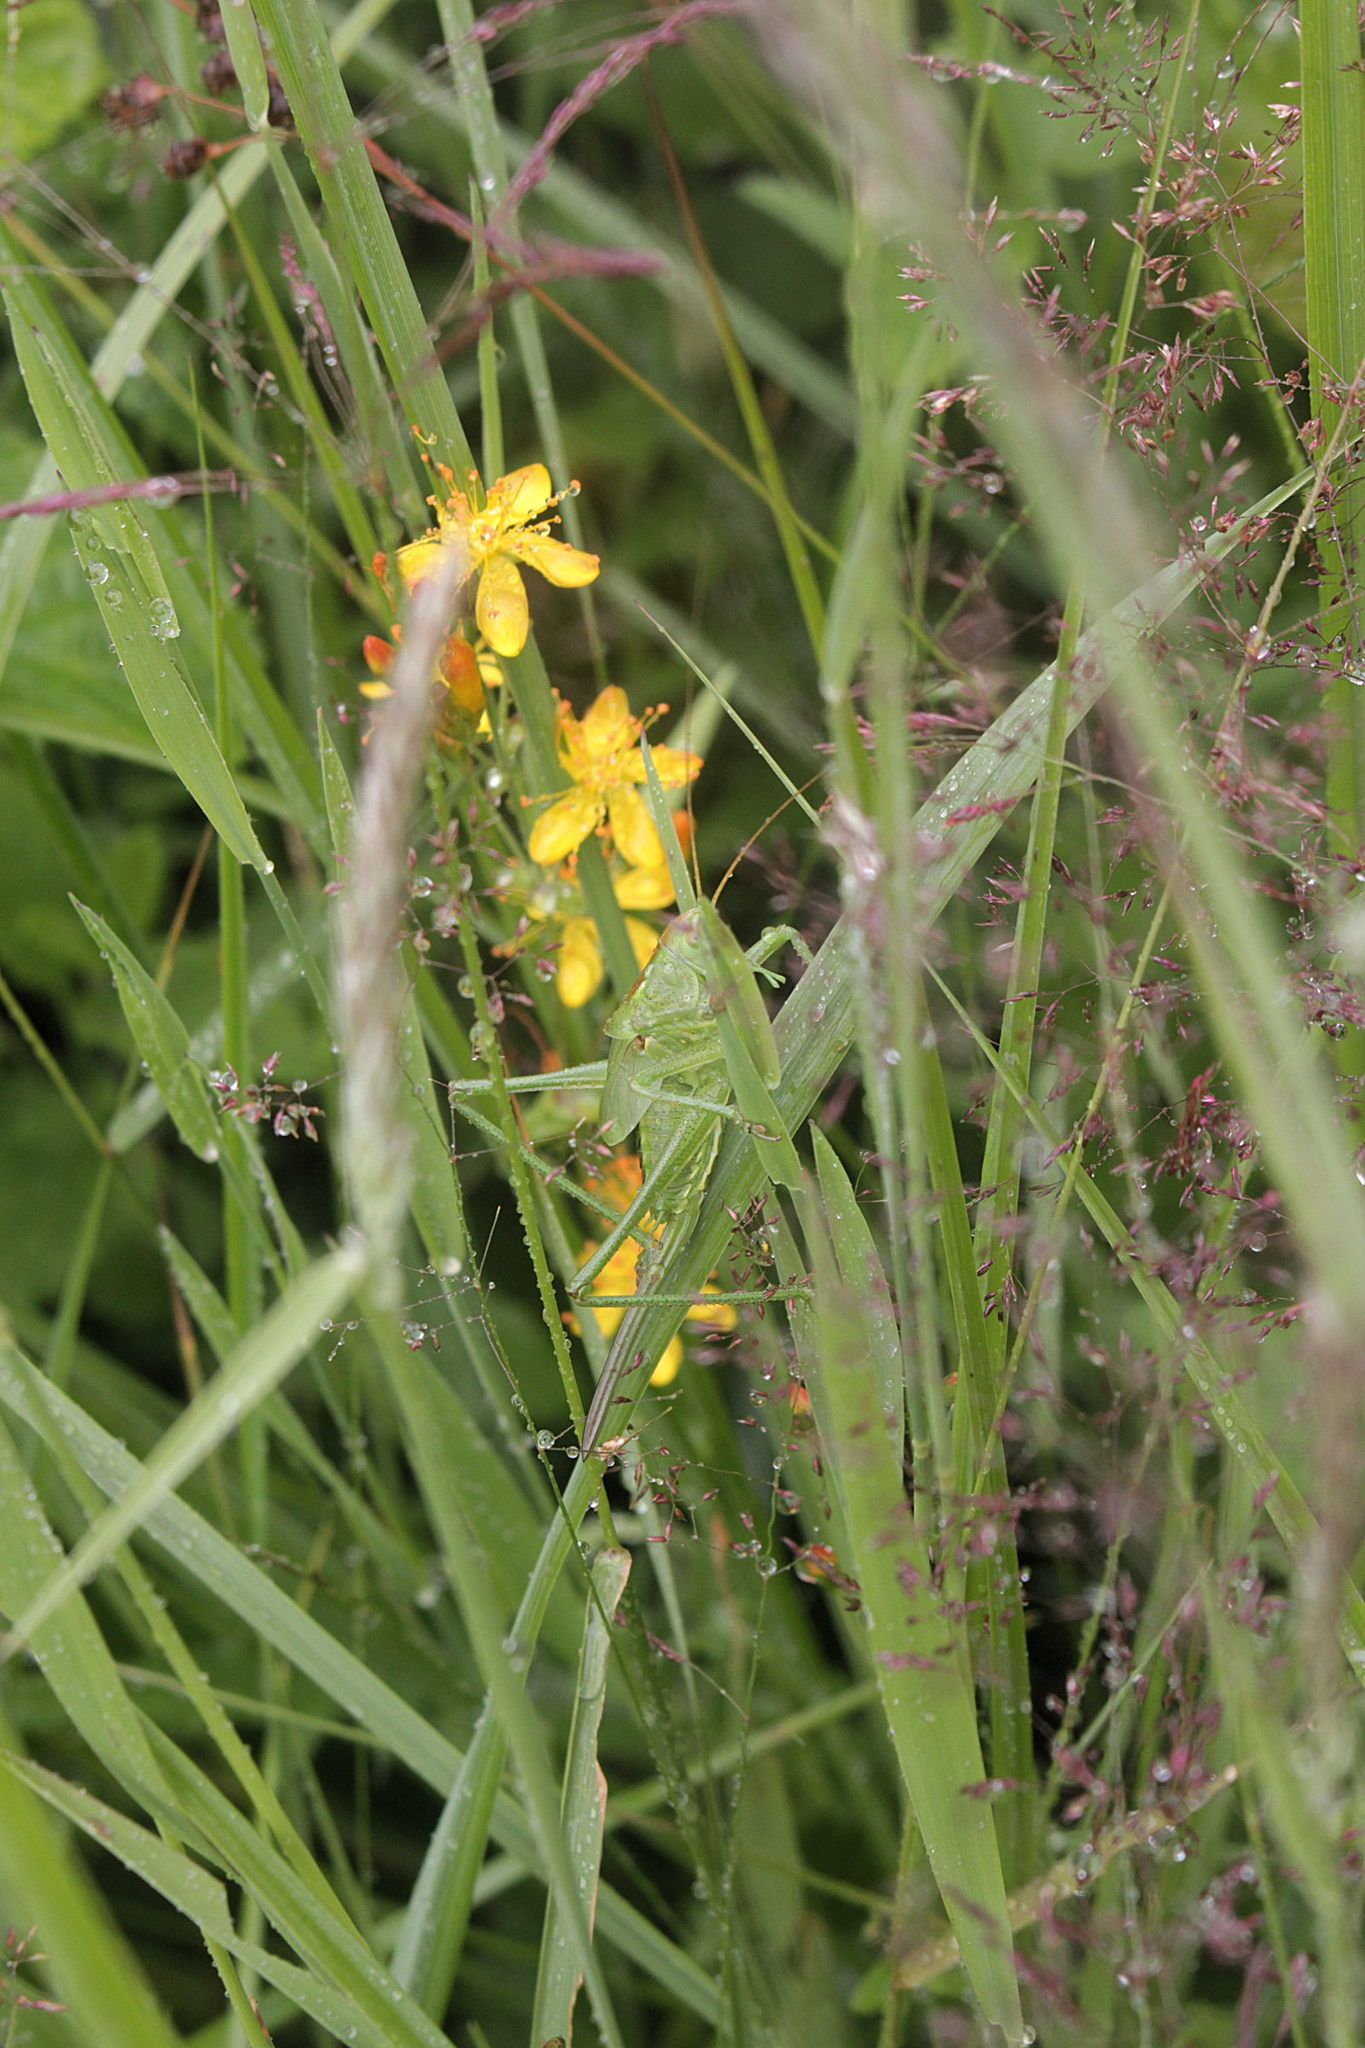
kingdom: Animalia
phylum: Arthropoda
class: Insecta
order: Orthoptera
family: Tettigoniidae
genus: Tettigonia
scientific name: Tettigonia viridissima
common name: Great green bush-cricket
